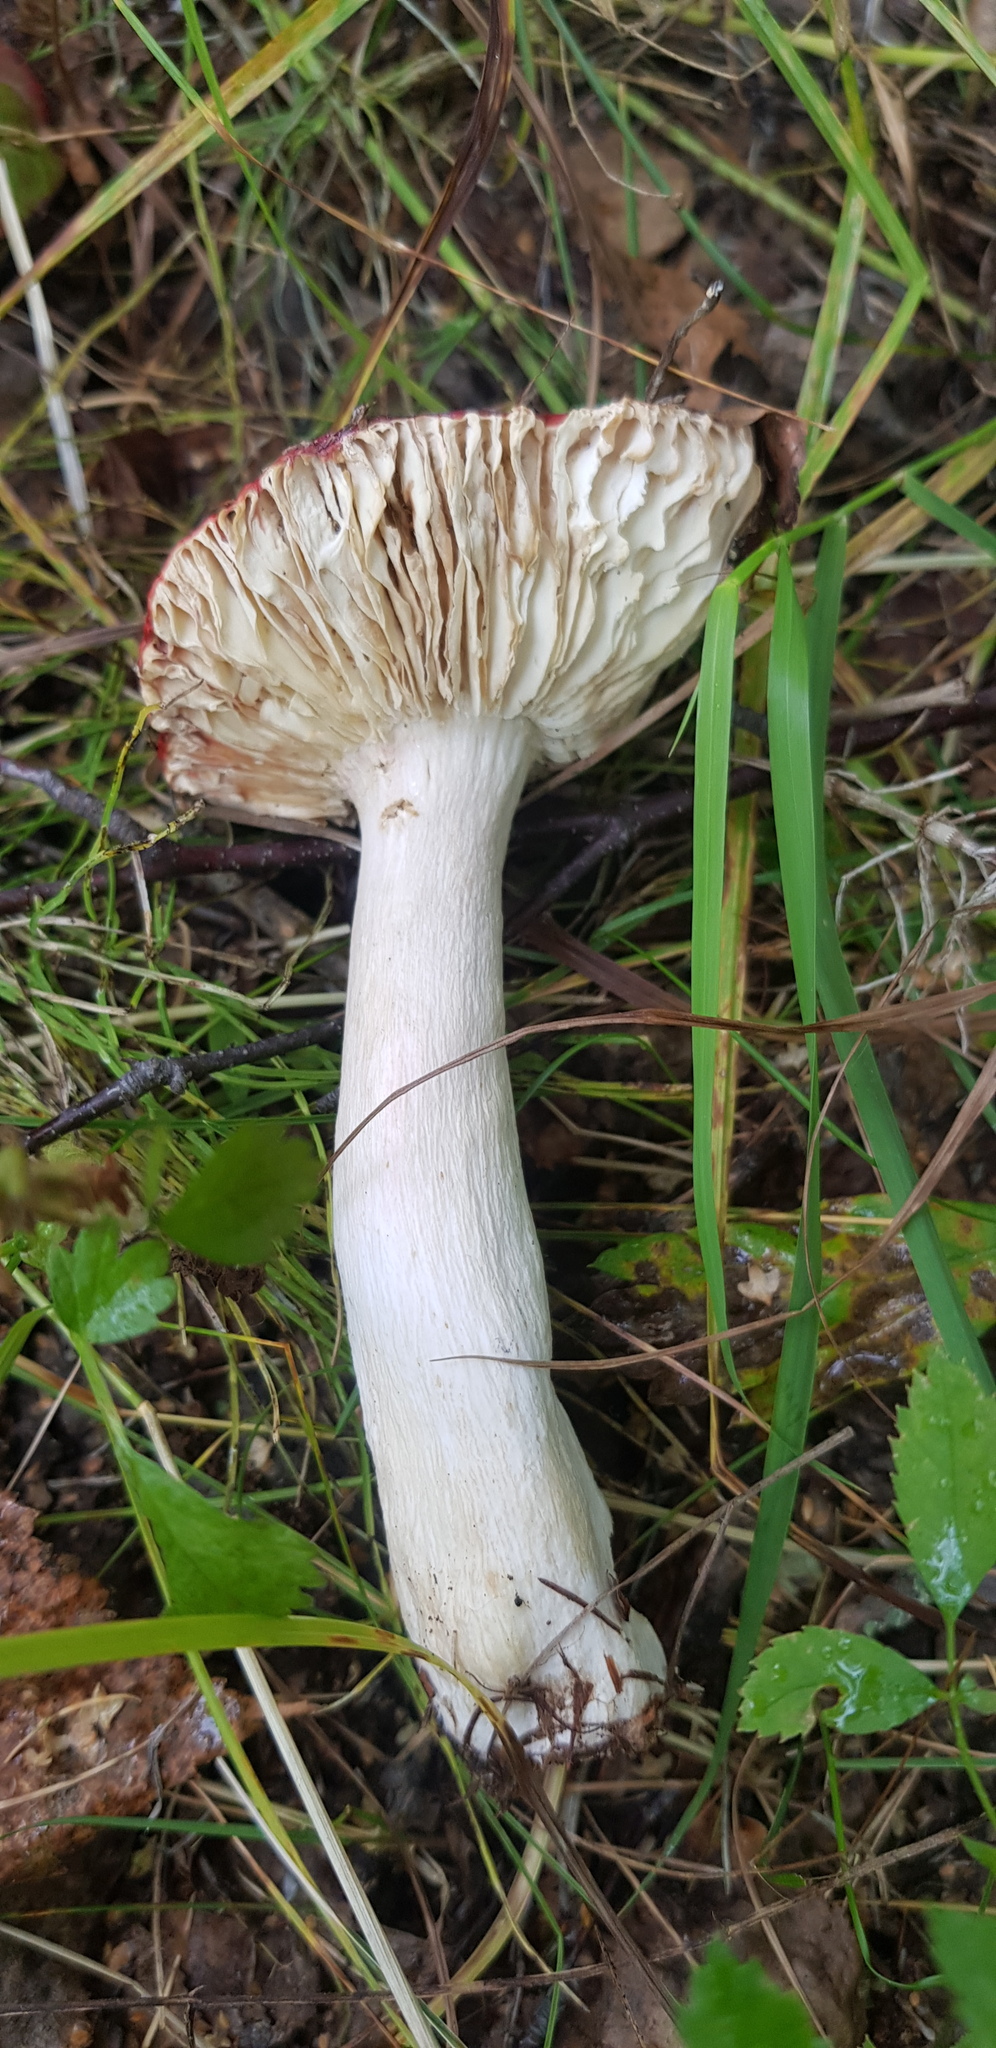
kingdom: Fungi
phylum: Basidiomycota
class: Agaricomycetes
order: Russulales
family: Russulaceae
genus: Russula
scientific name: Russula sanguinea
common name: Bloody brittlegill
